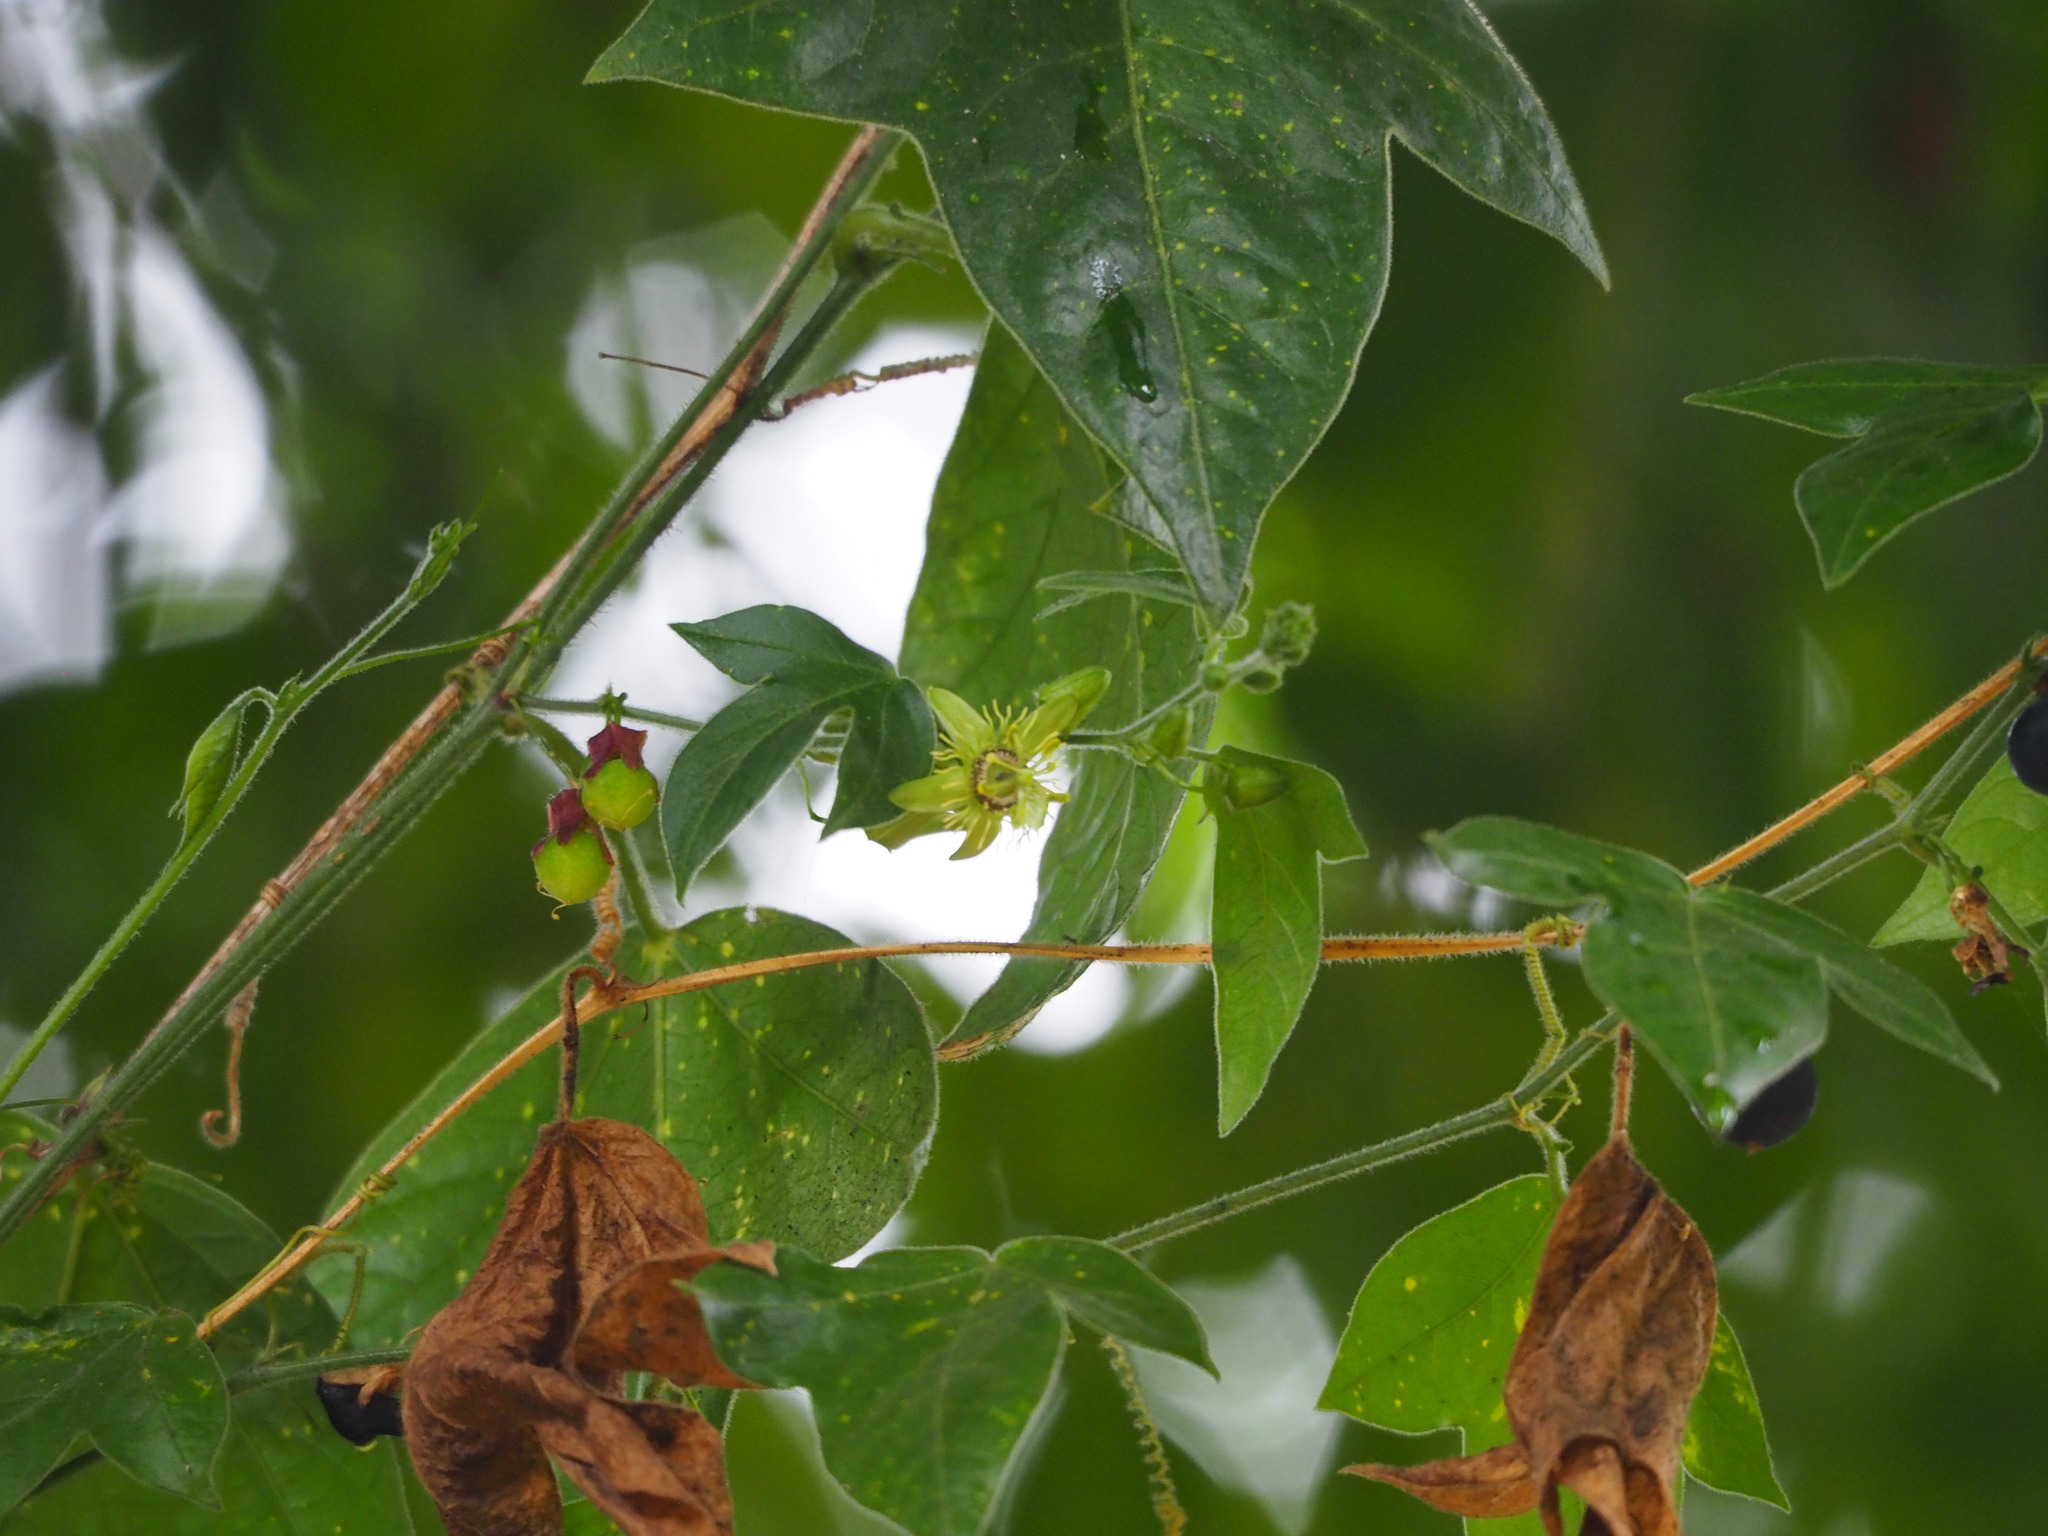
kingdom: Plantae
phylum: Tracheophyta
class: Magnoliopsida
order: Malpighiales
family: Passifloraceae
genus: Passiflora
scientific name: Passiflora suberosa
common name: Wild passionfruit
